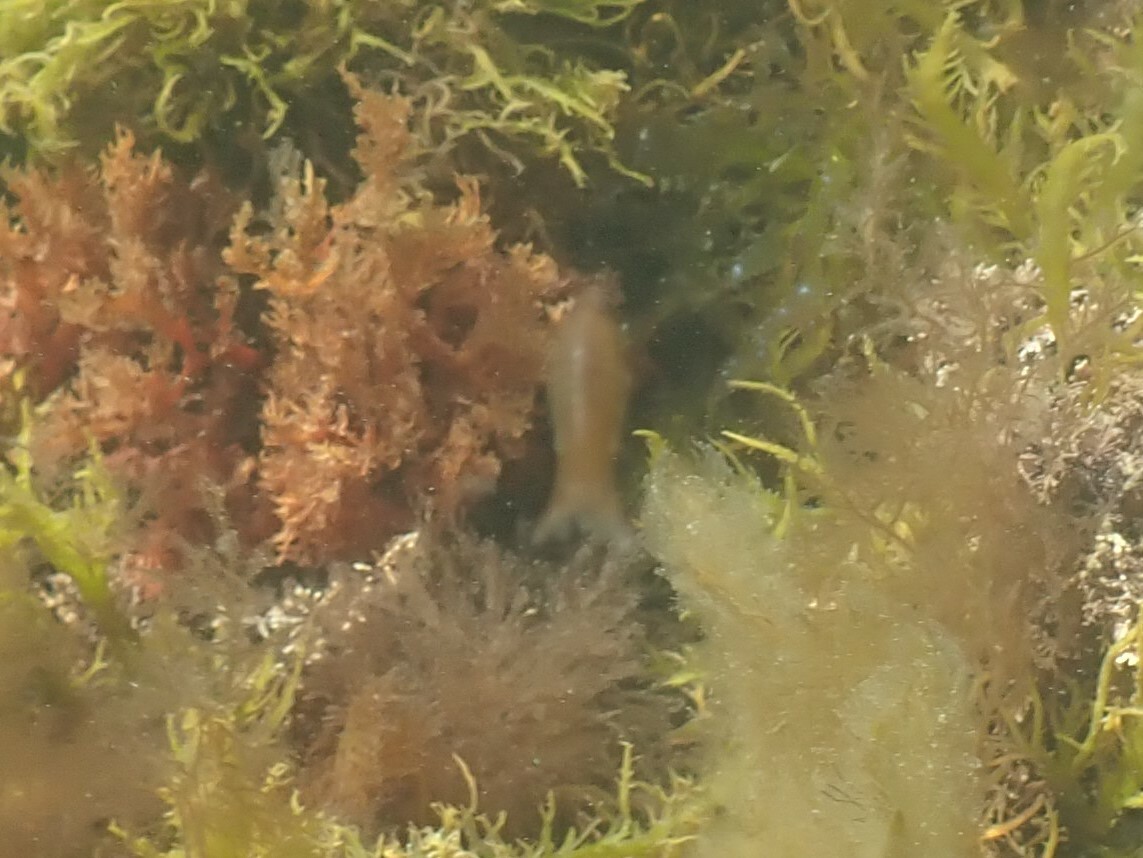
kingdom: Animalia
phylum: Arthropoda
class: Malacostraca
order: Isopoda
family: Cymothoidae
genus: Anilocra
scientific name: Anilocra
